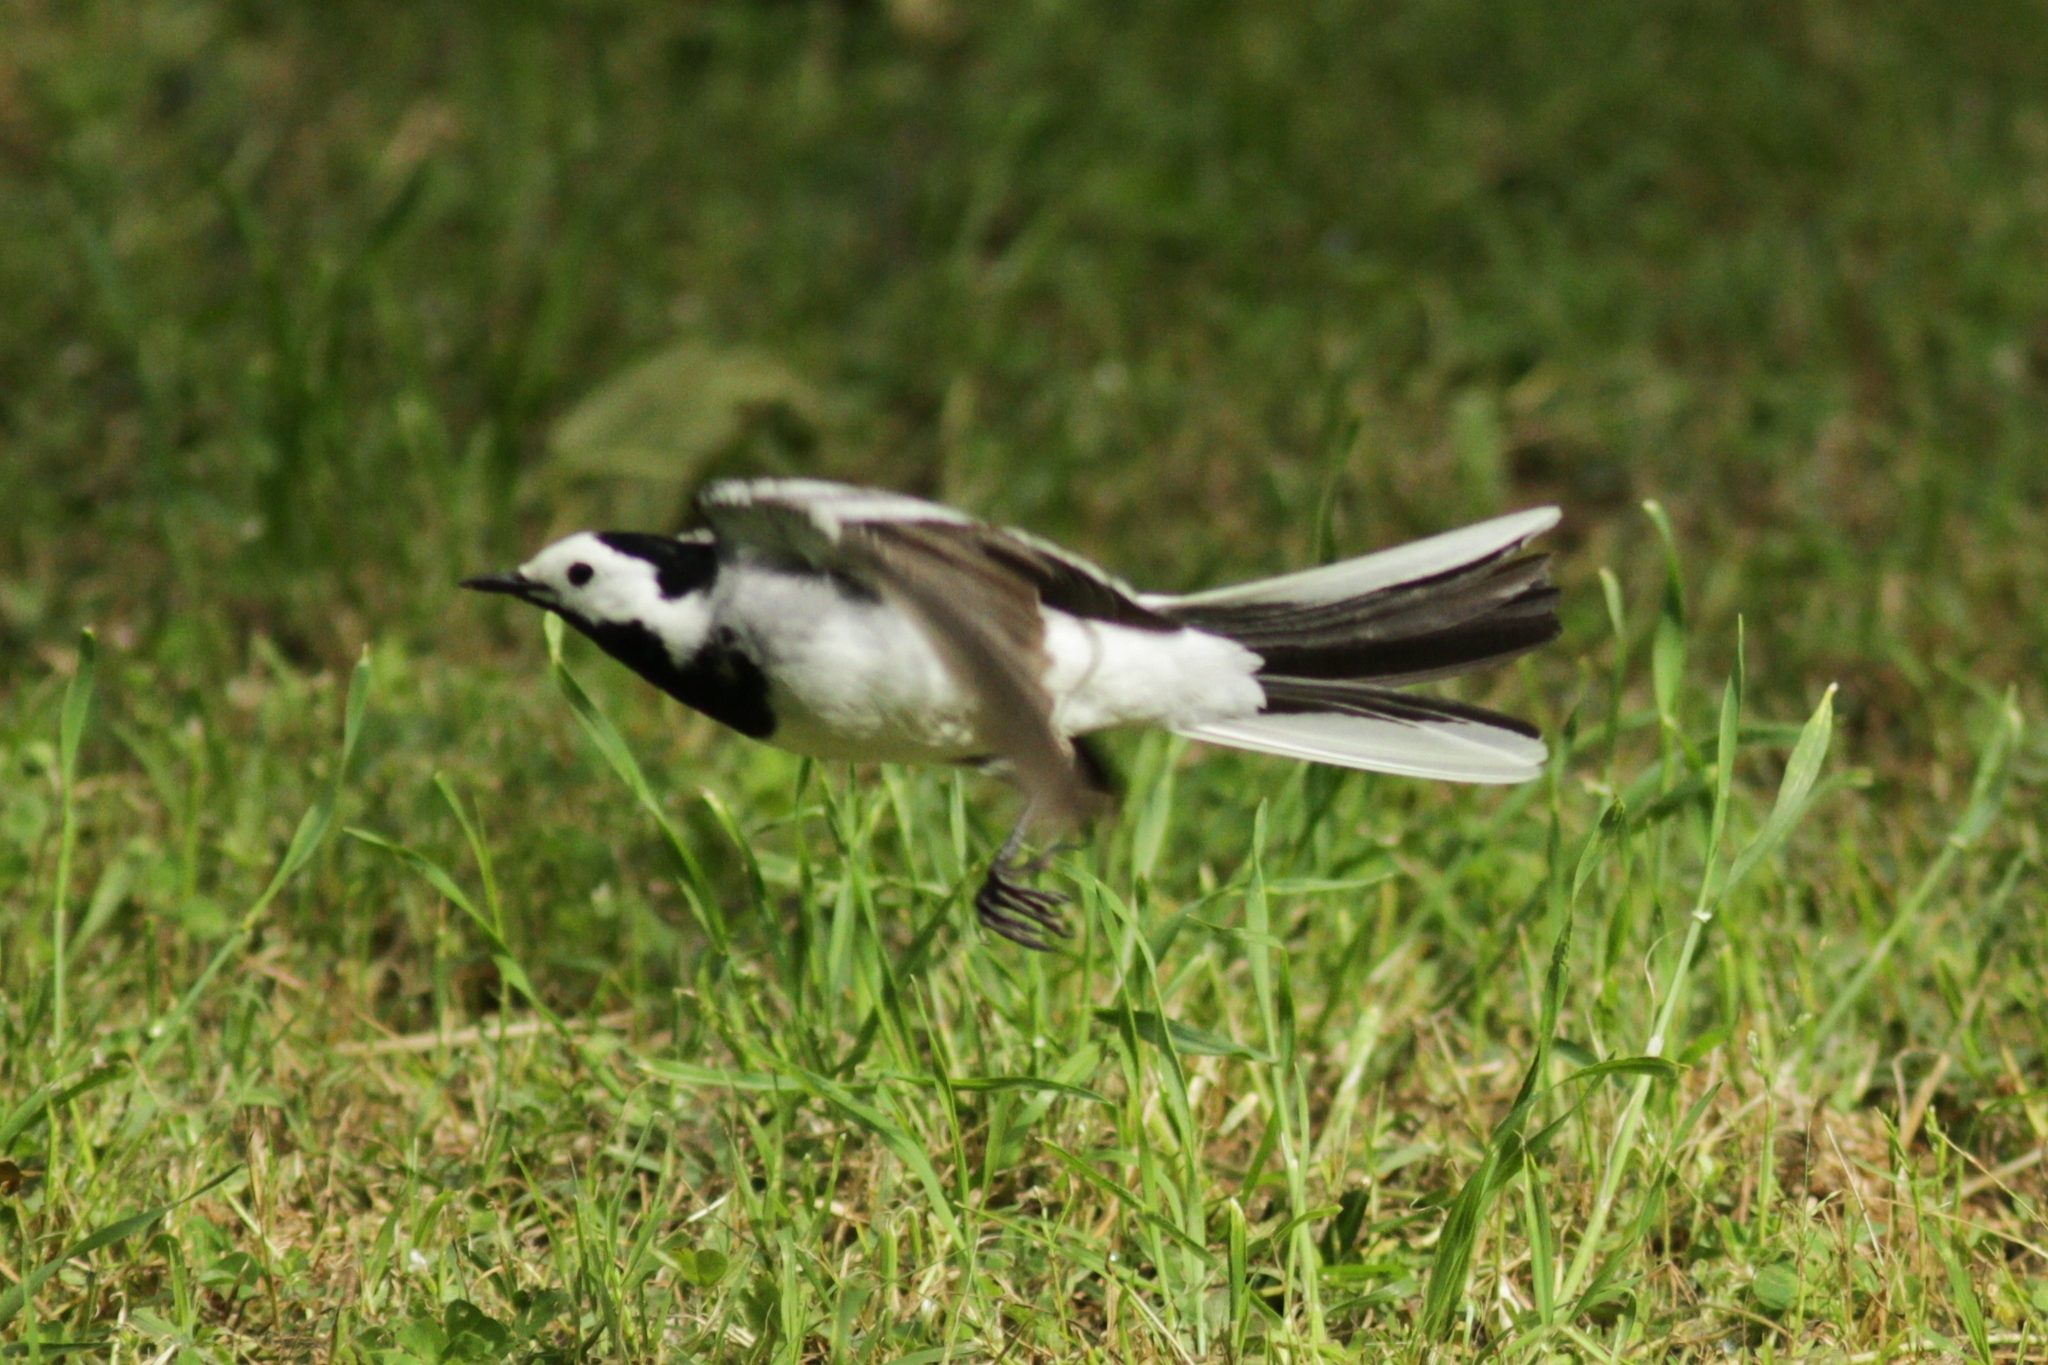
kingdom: Animalia
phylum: Chordata
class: Aves
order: Passeriformes
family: Motacillidae
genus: Motacilla
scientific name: Motacilla alba
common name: White wagtail
